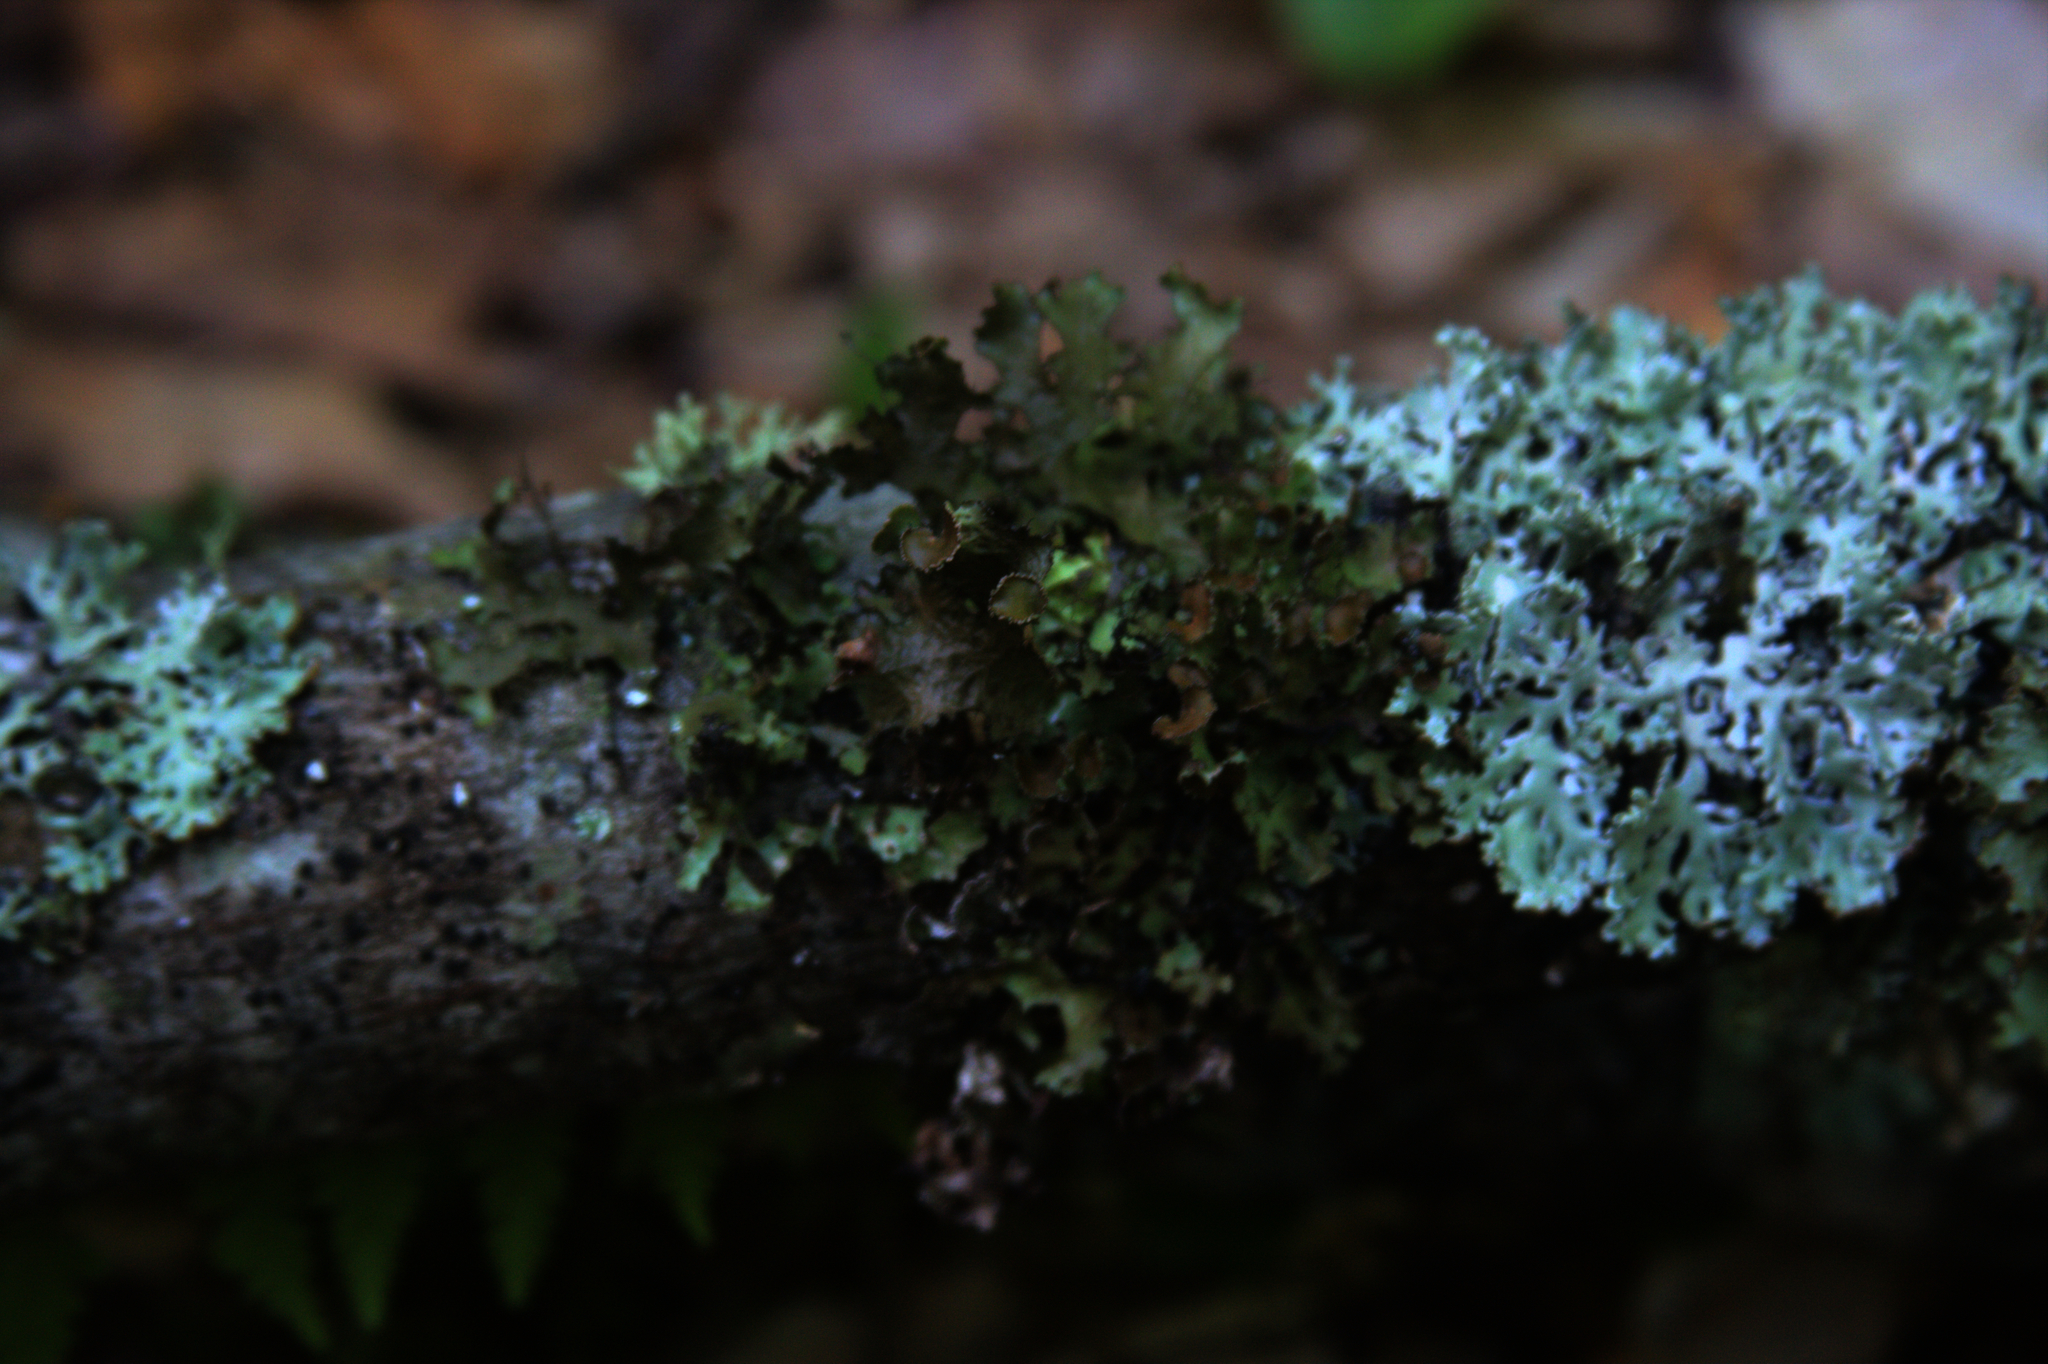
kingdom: Fungi
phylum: Ascomycota
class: Lecanoromycetes
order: Lecanorales
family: Parmeliaceae
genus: Nephromopsis
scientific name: Nephromopsis orbata
